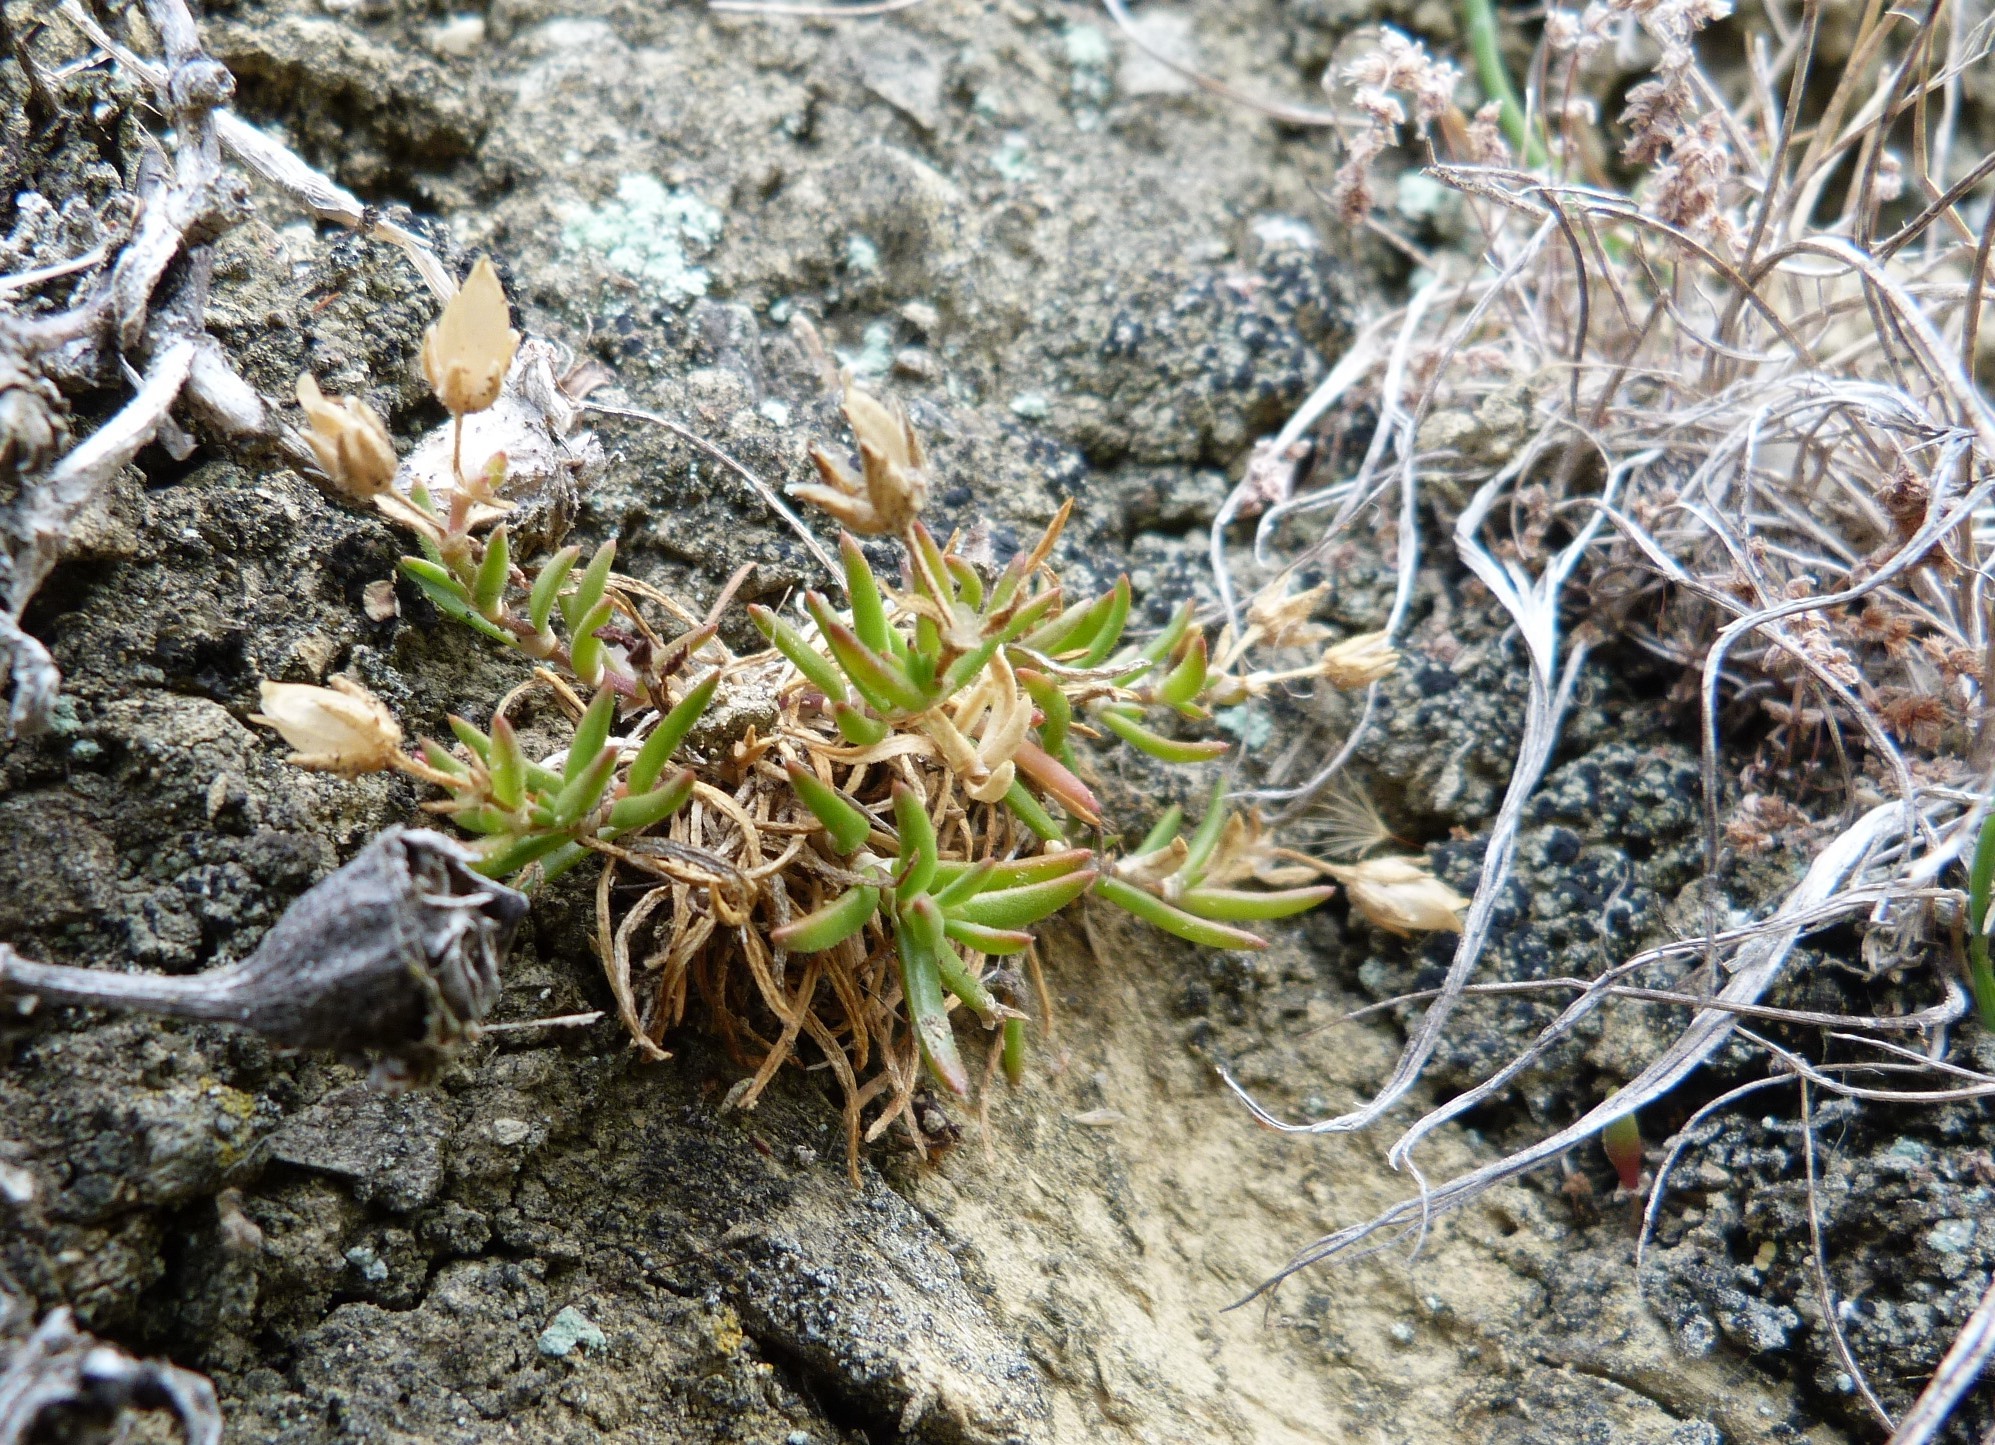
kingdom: Plantae
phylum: Tracheophyta
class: Magnoliopsida
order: Caryophyllales
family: Caryophyllaceae
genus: Spergularia
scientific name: Spergularia media
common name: Greater sea-spurrey
